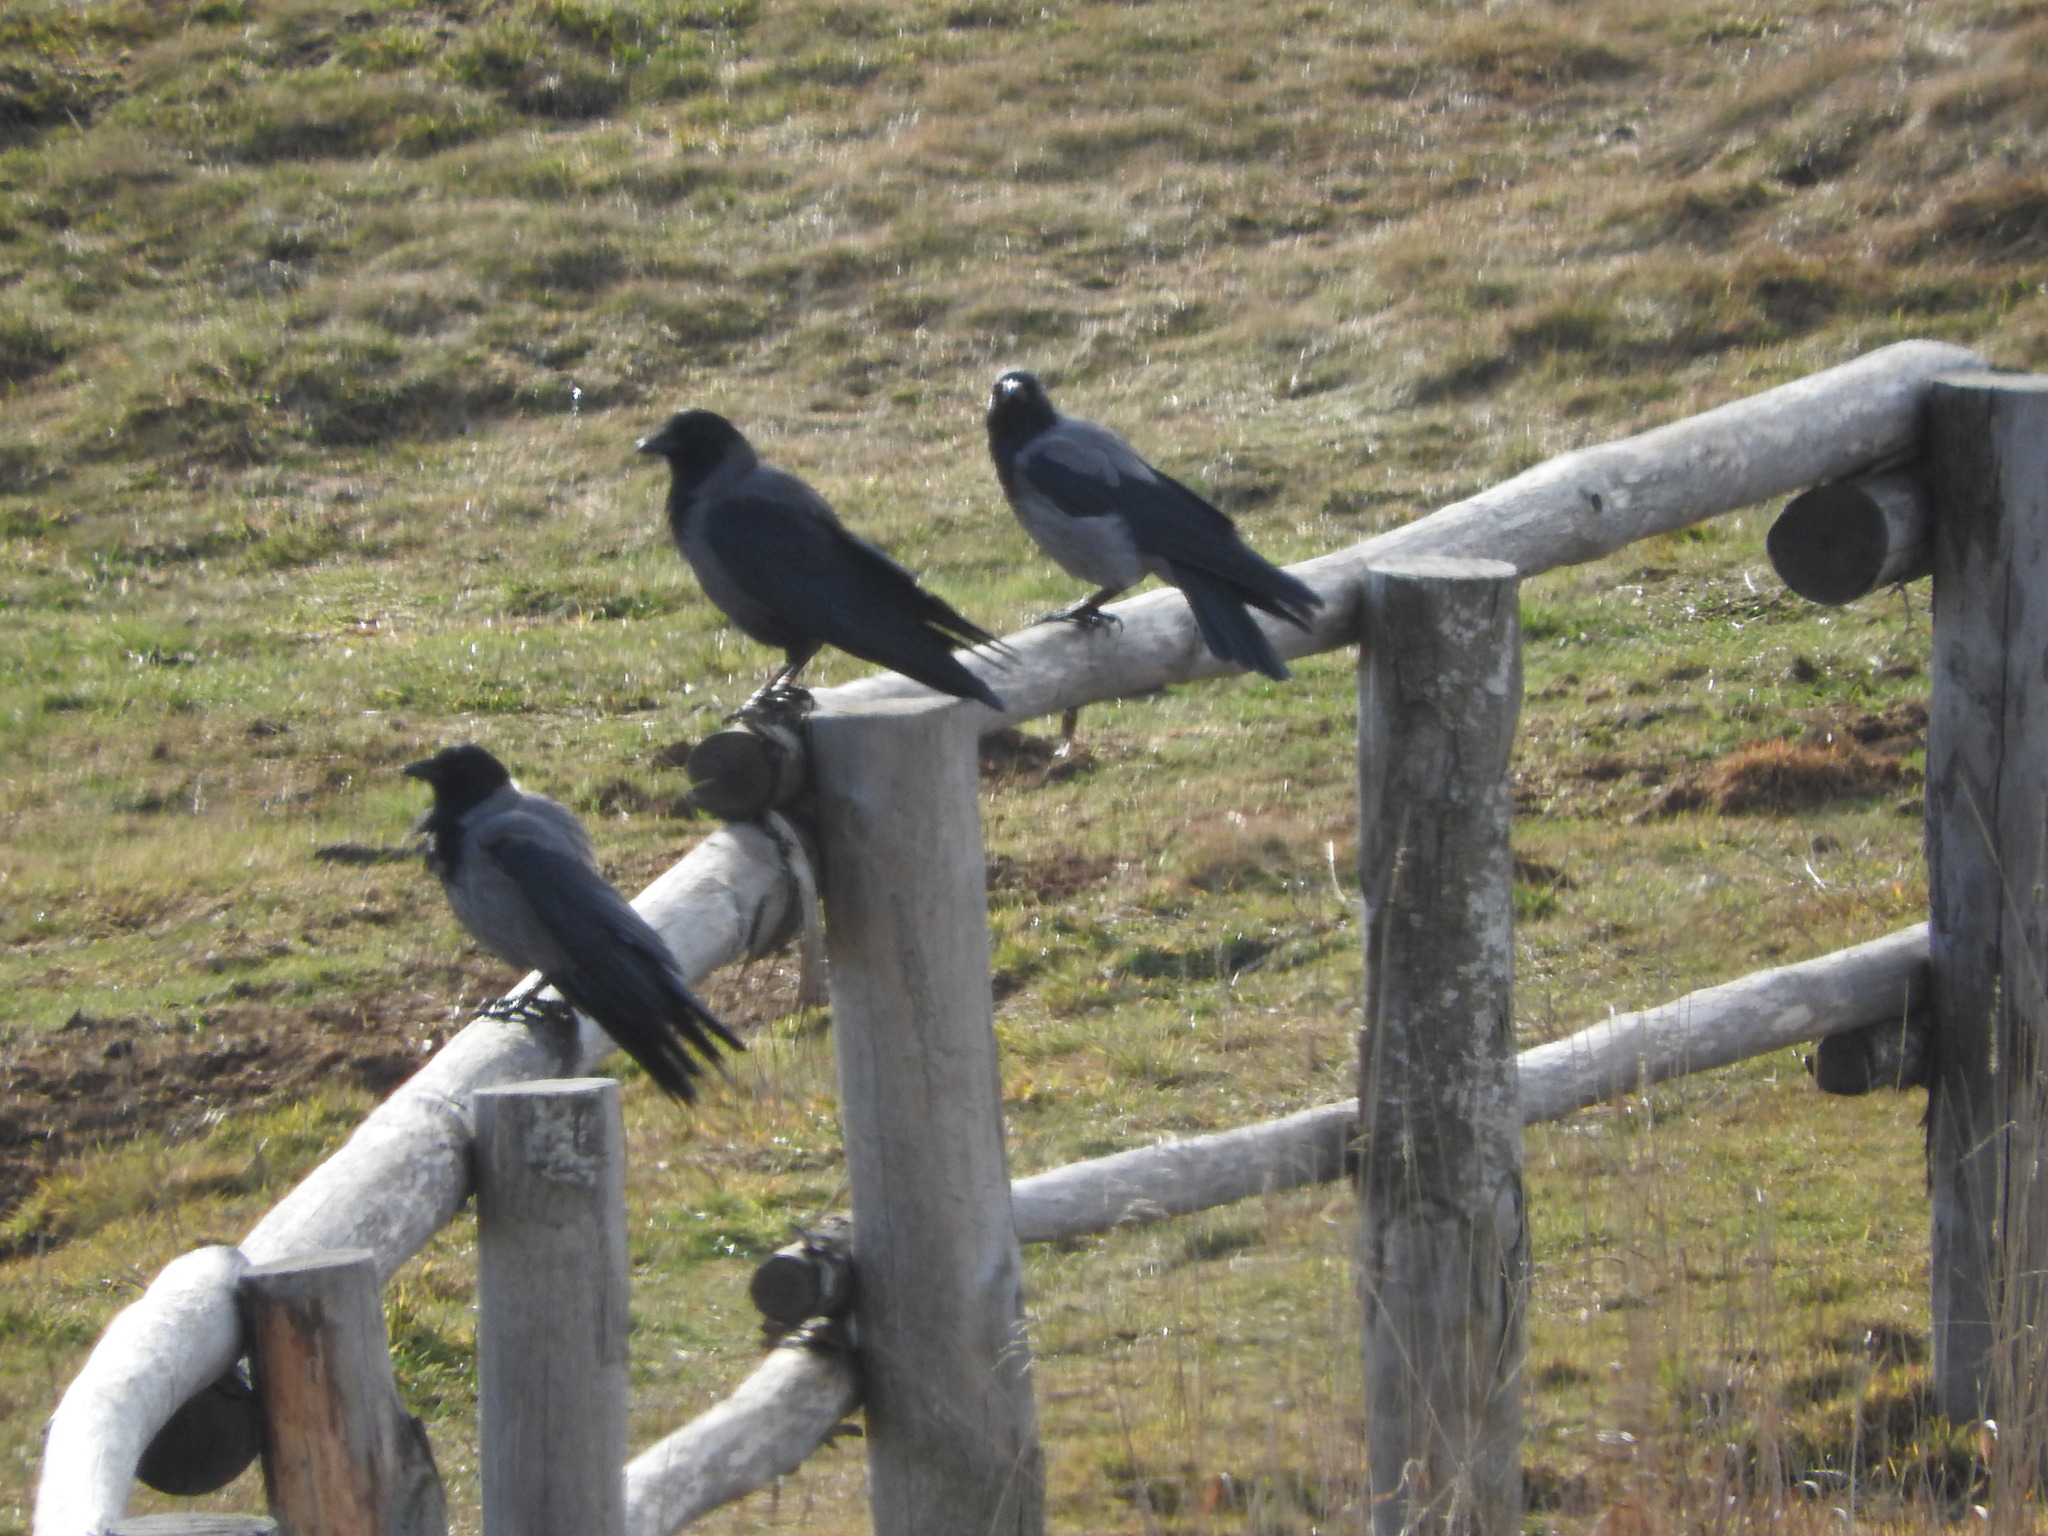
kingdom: Animalia
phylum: Chordata
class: Aves
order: Passeriformes
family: Corvidae
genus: Corvus
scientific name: Corvus cornix
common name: Hooded crow
